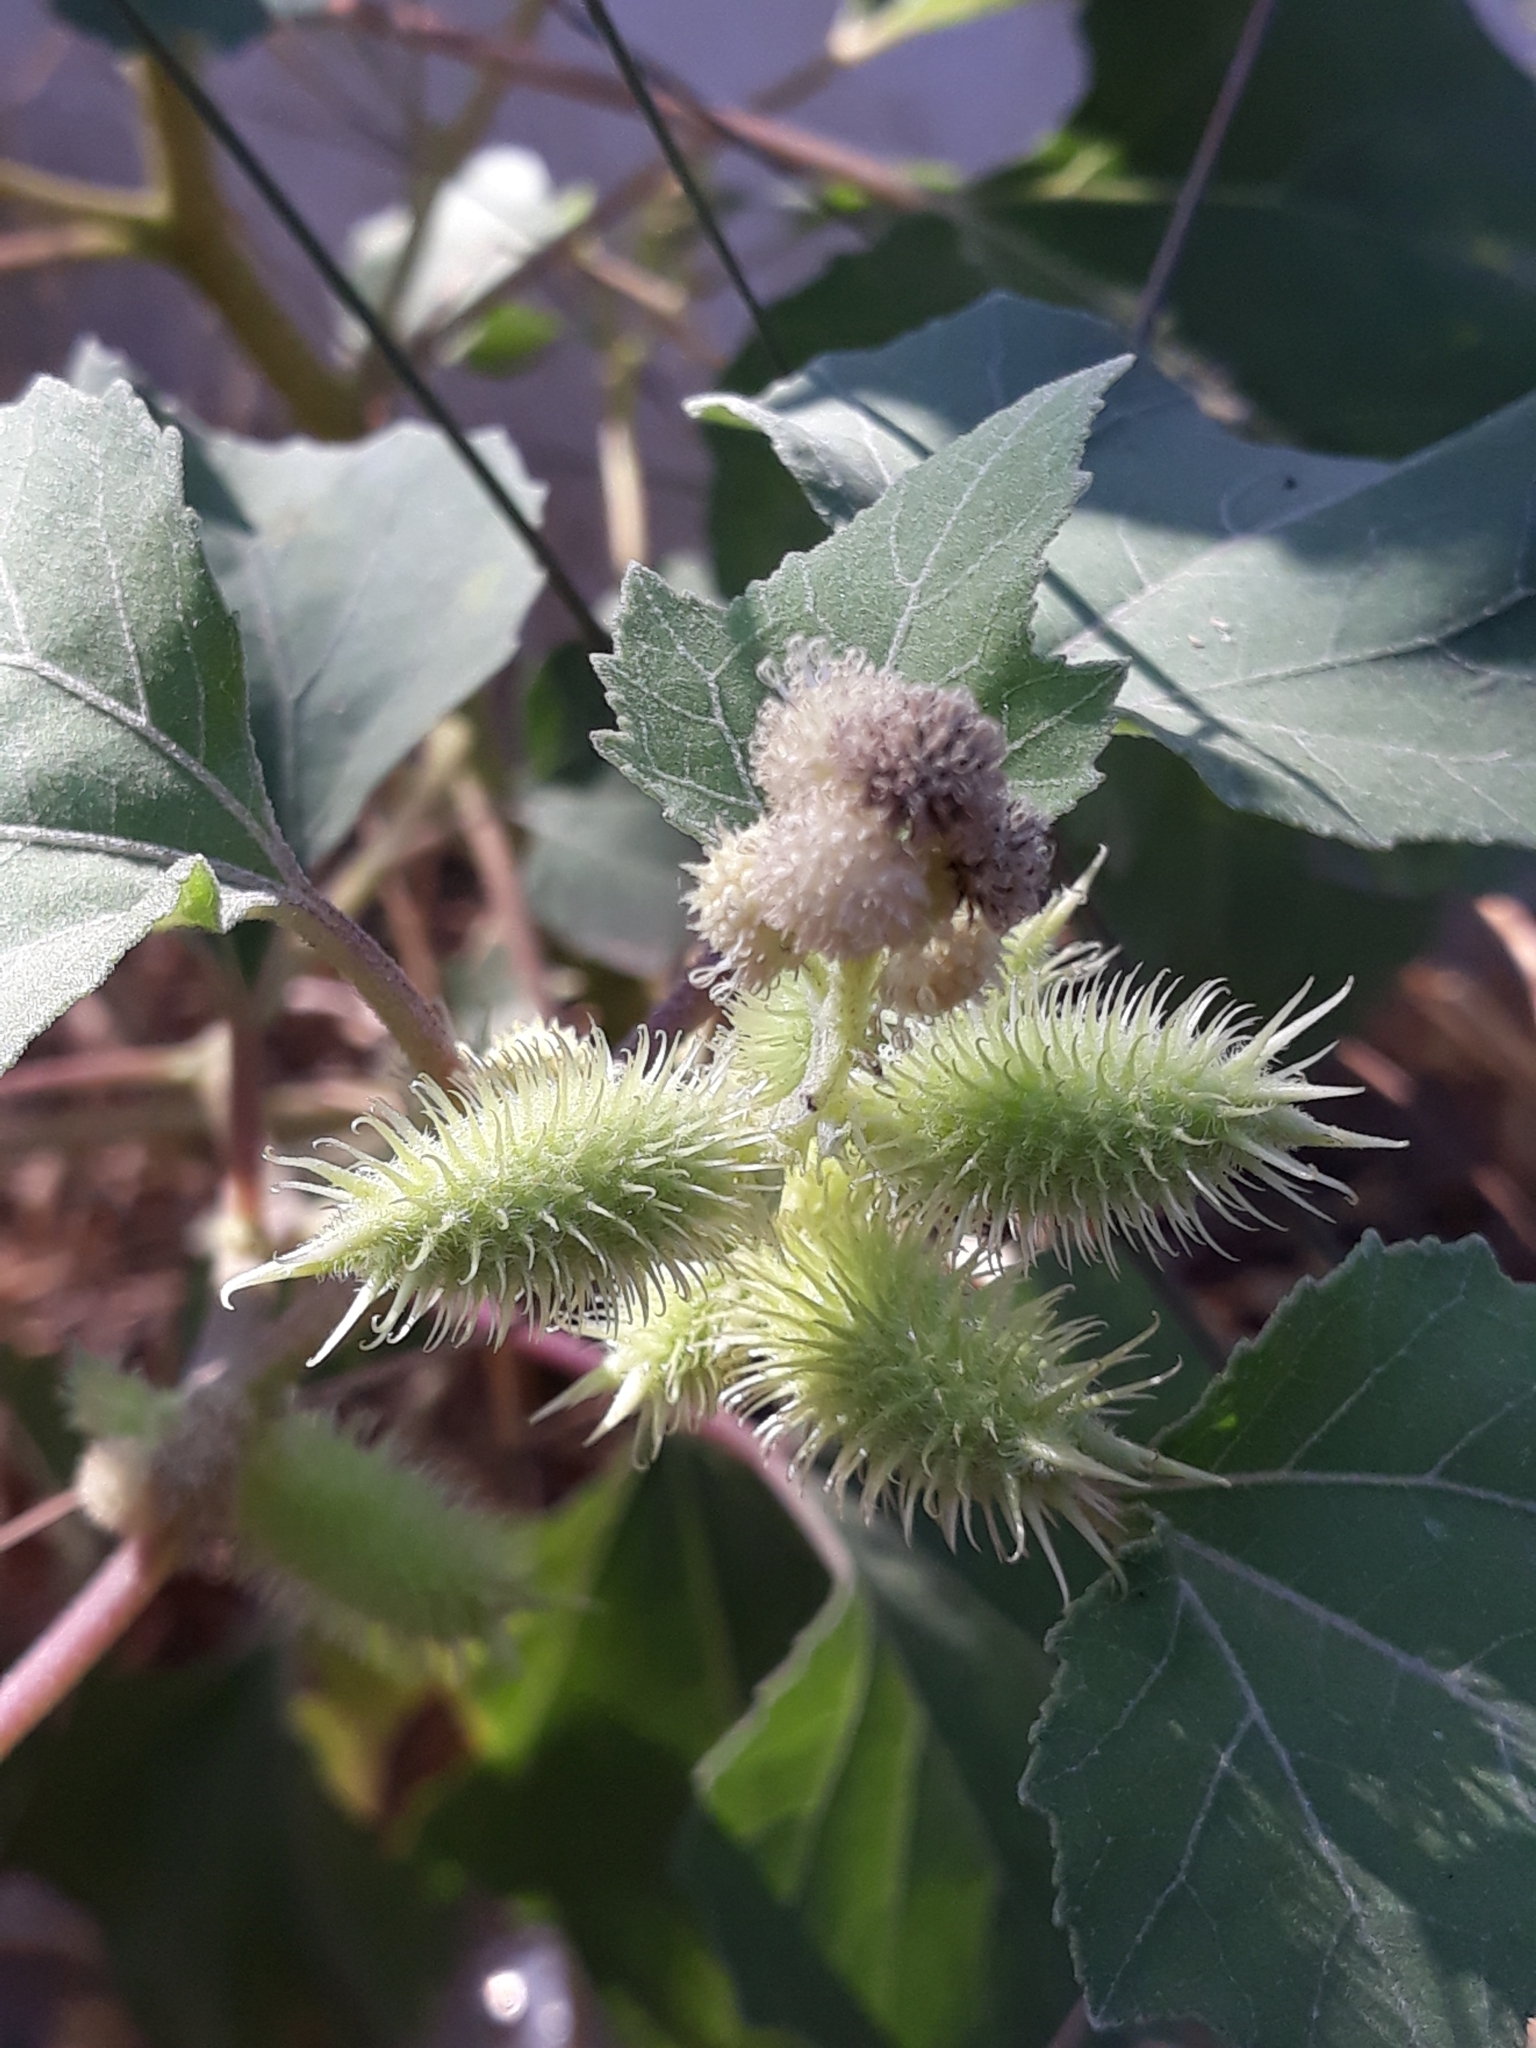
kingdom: Plantae
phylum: Tracheophyta
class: Magnoliopsida
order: Asterales
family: Asteraceae
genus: Xanthium
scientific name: Xanthium strumarium
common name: Rough cocklebur
